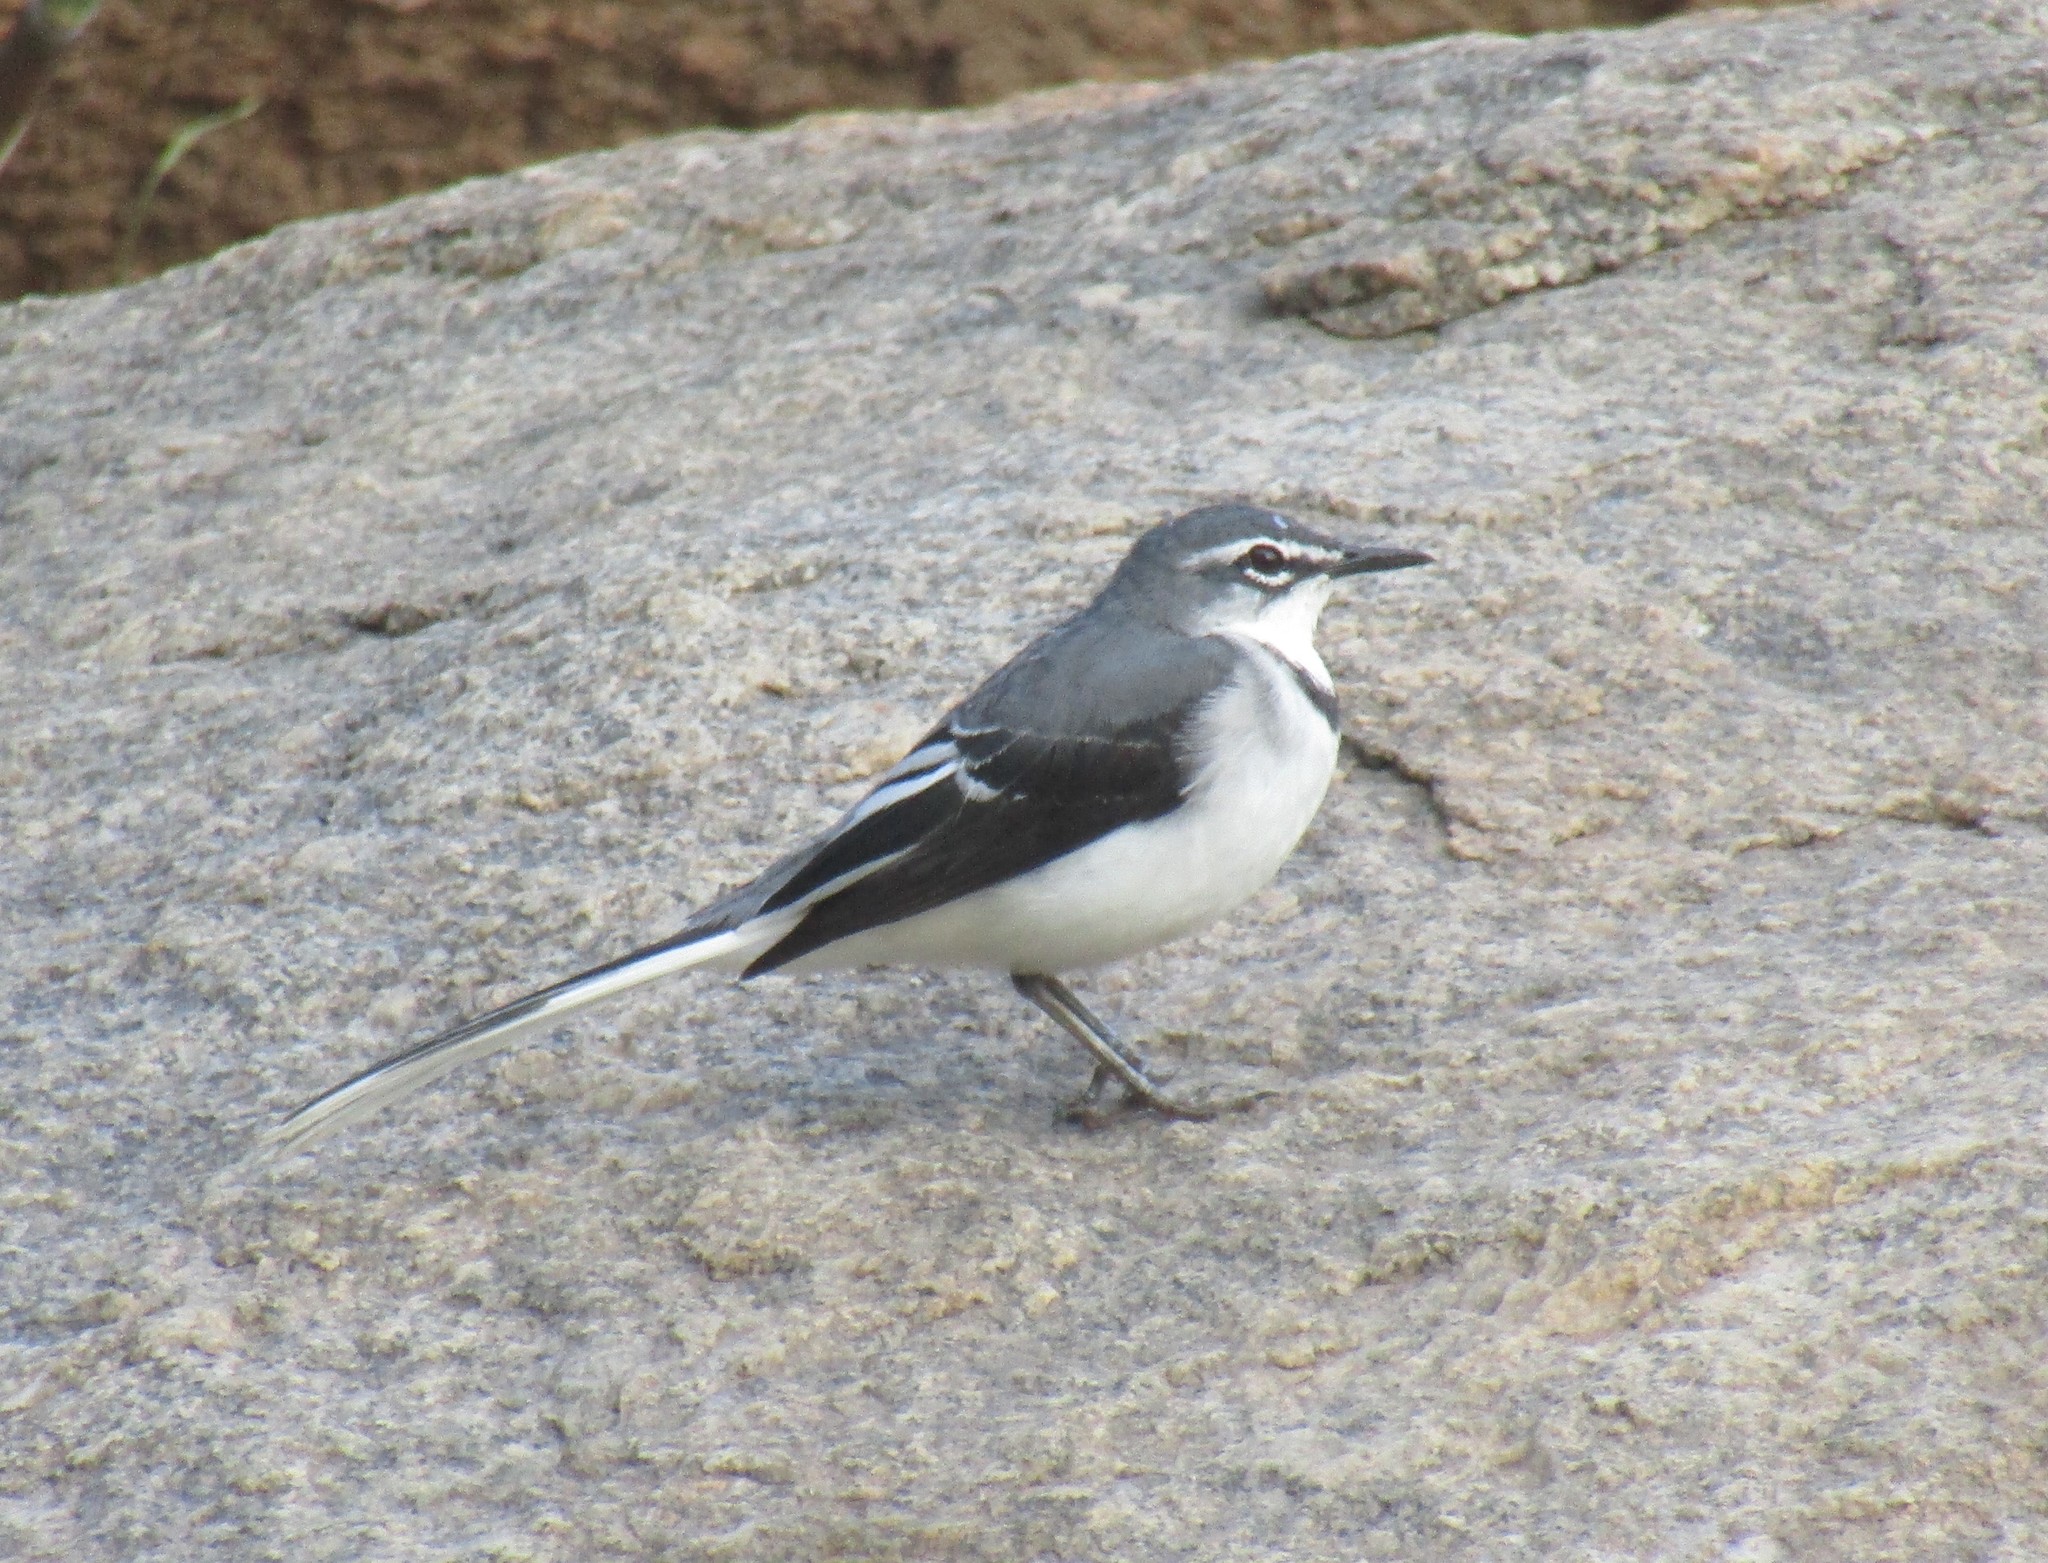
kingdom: Animalia
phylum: Chordata
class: Aves
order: Passeriformes
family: Motacillidae
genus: Motacilla
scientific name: Motacilla clara
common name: Mountain wagtail
